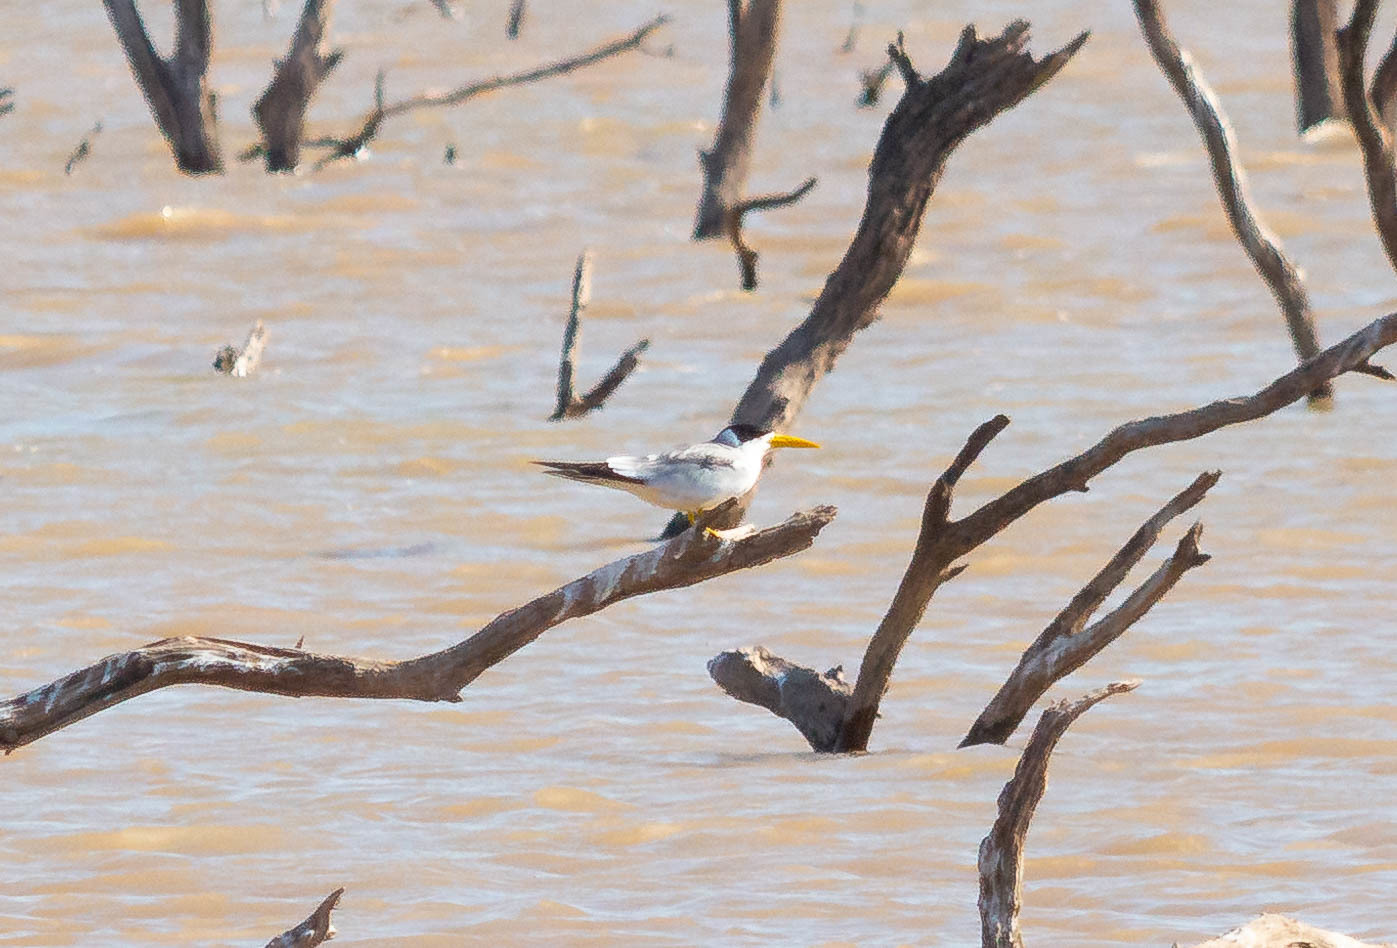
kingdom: Animalia
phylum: Chordata
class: Aves
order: Charadriiformes
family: Laridae
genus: Phaetusa
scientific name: Phaetusa simplex
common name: Large-billed tern
